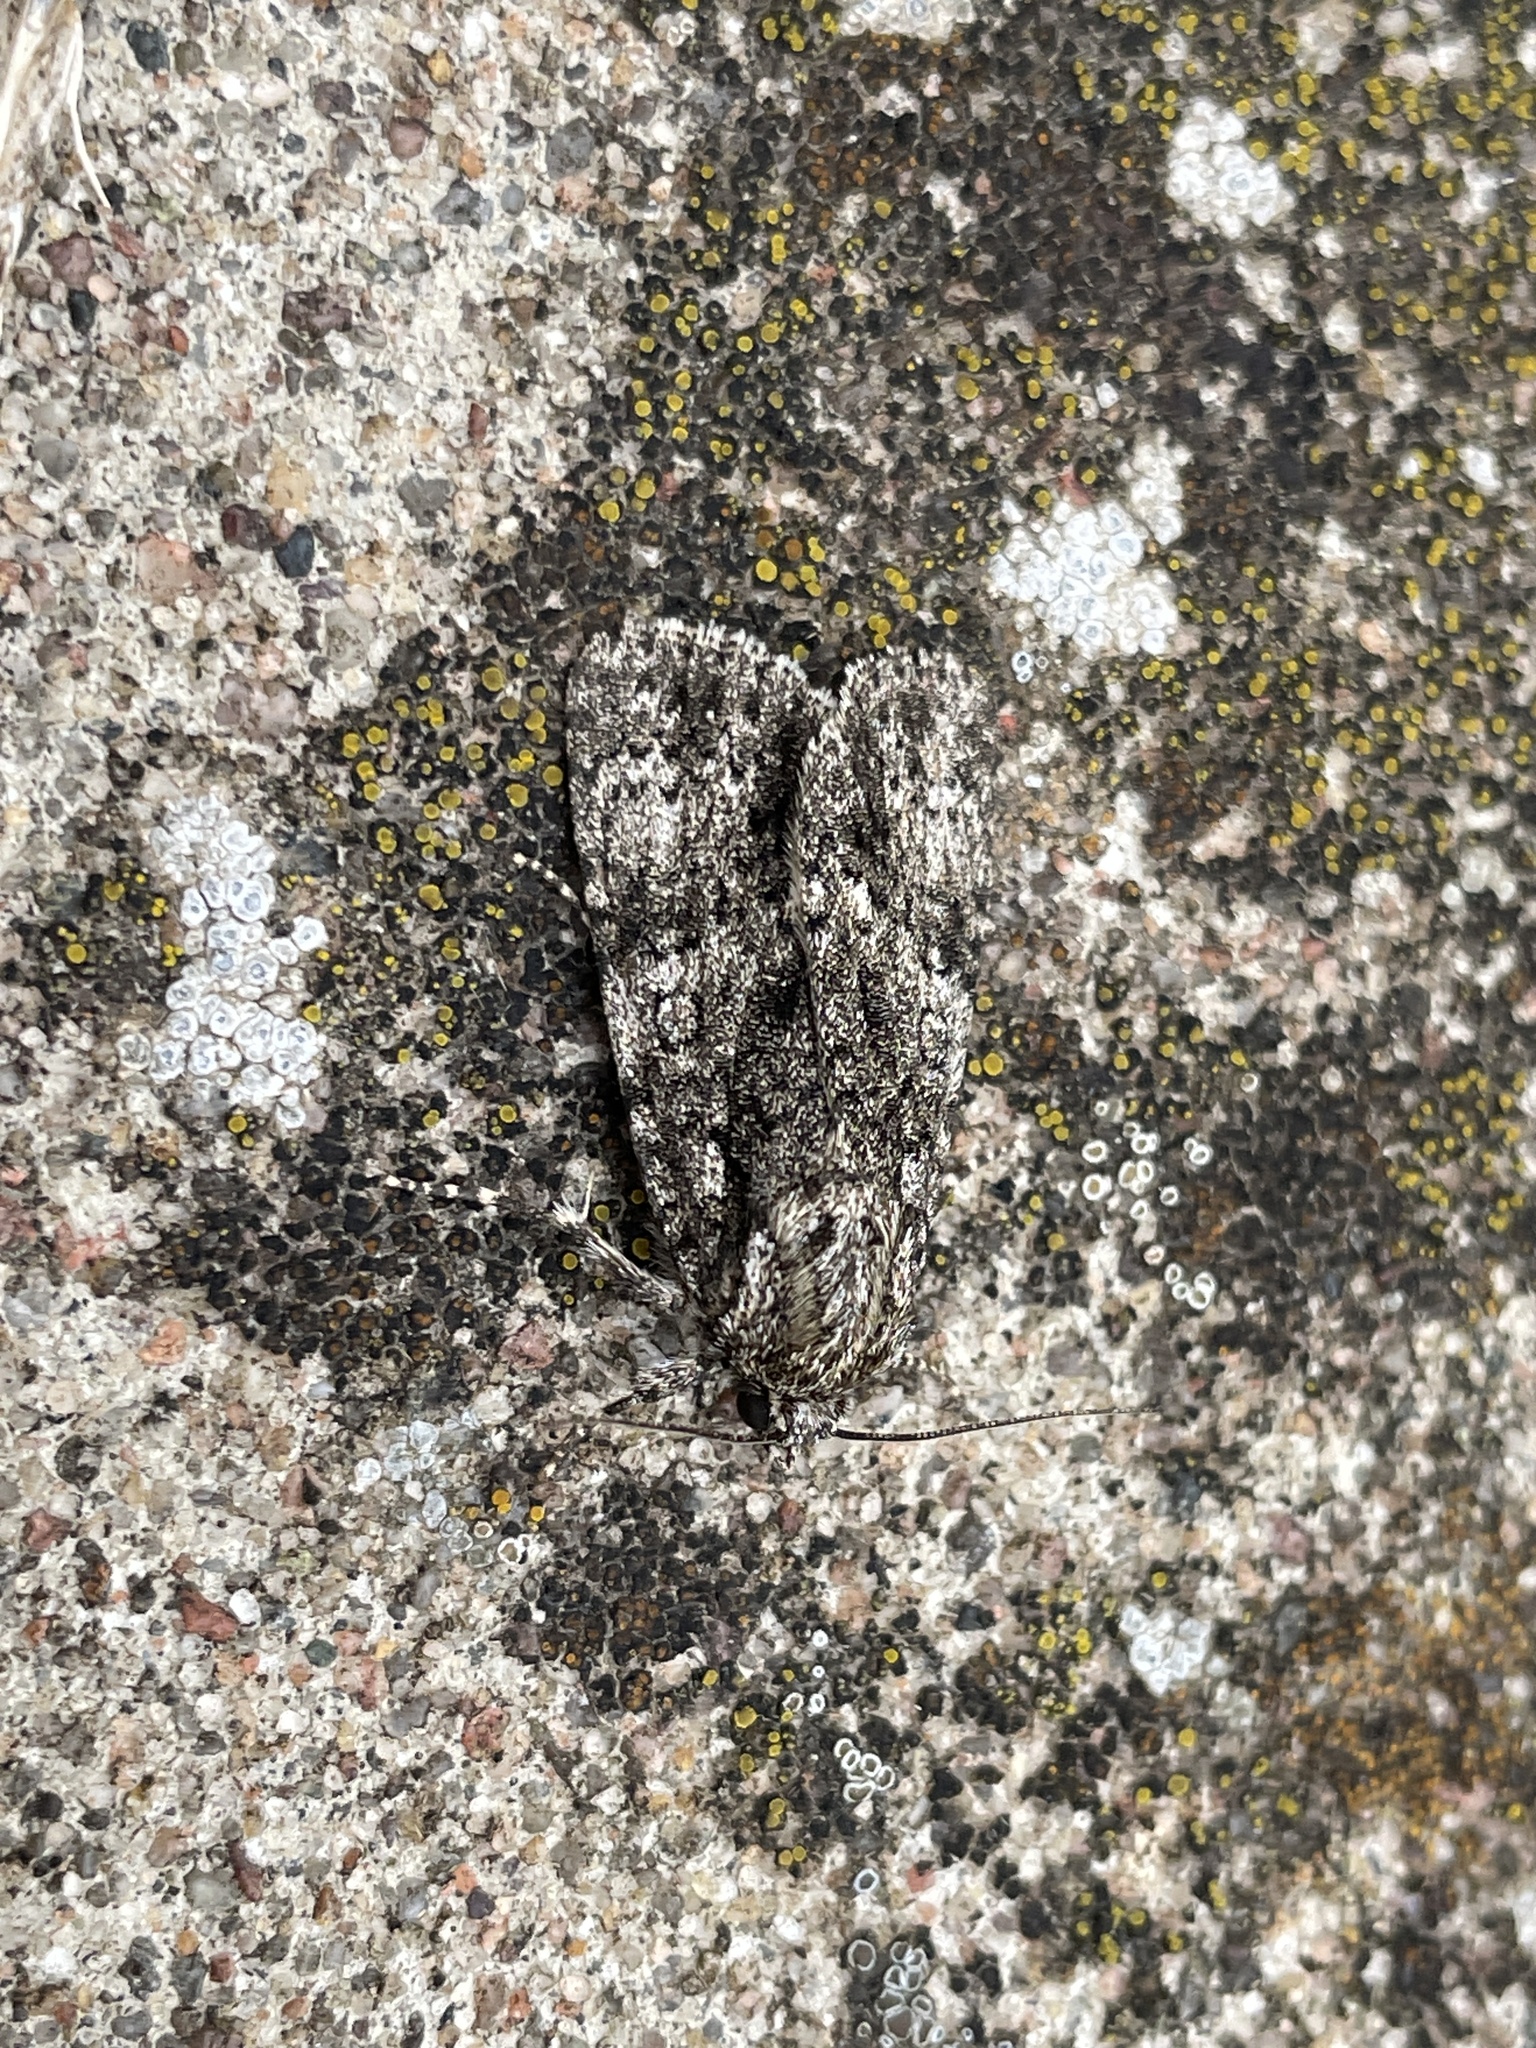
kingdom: Animalia
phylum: Arthropoda
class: Insecta
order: Lepidoptera
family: Noctuidae
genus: Acronicta
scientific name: Acronicta rumicis
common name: Knot grass
